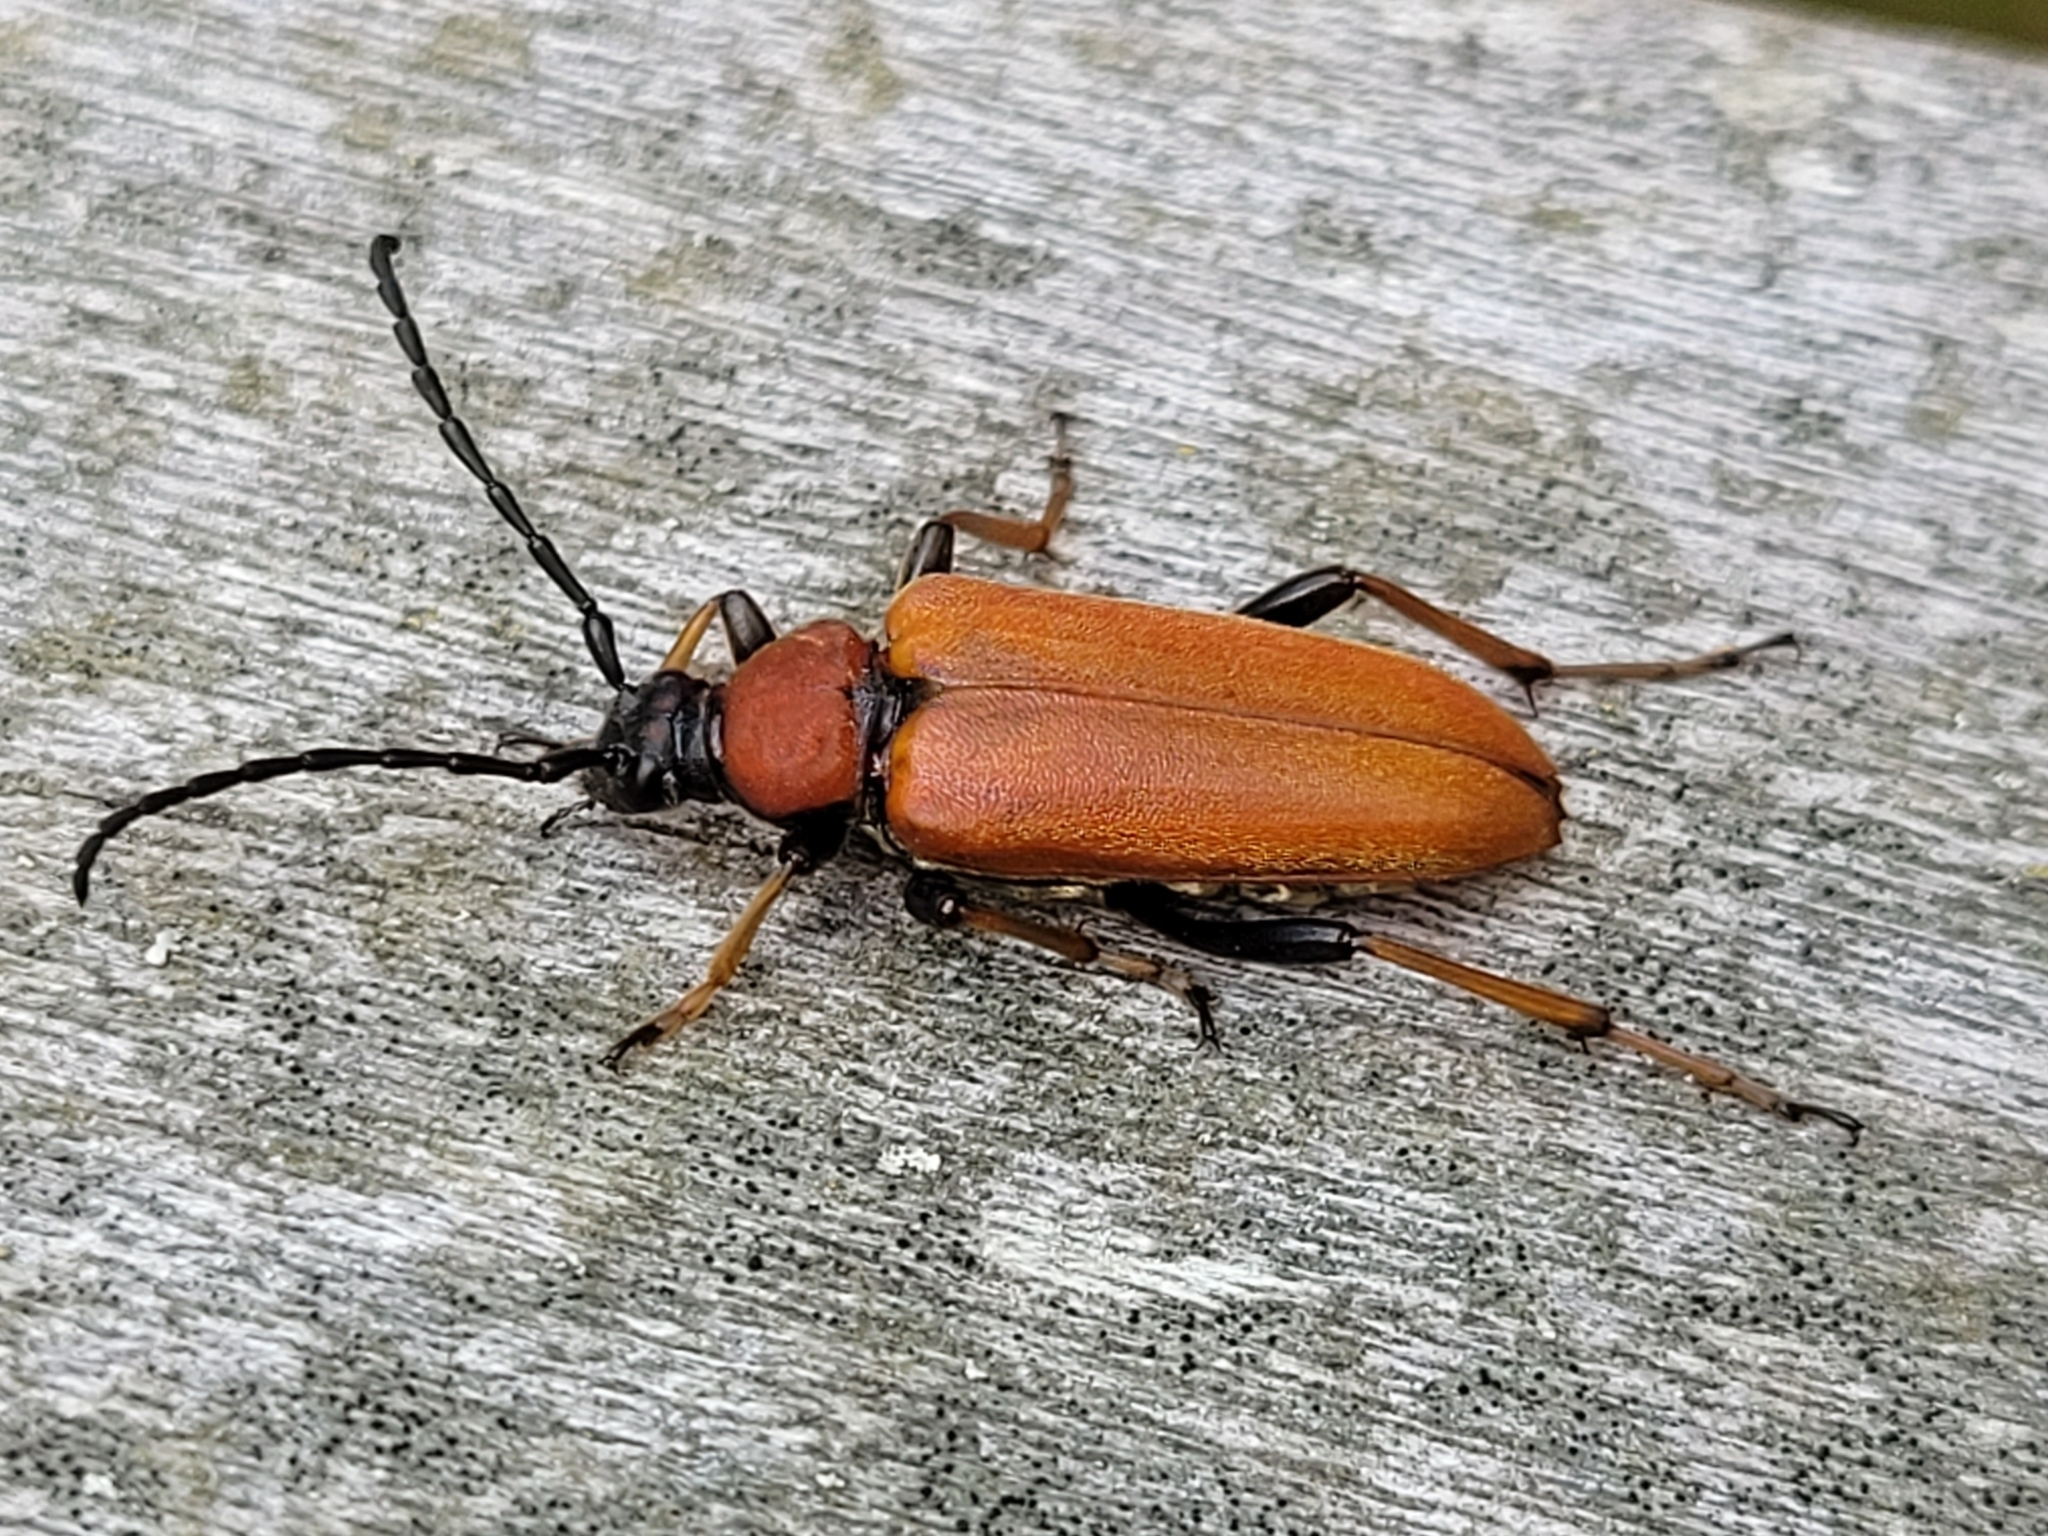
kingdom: Animalia
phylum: Arthropoda
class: Insecta
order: Coleoptera
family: Cerambycidae
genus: Stictoleptura
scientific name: Stictoleptura rubra
